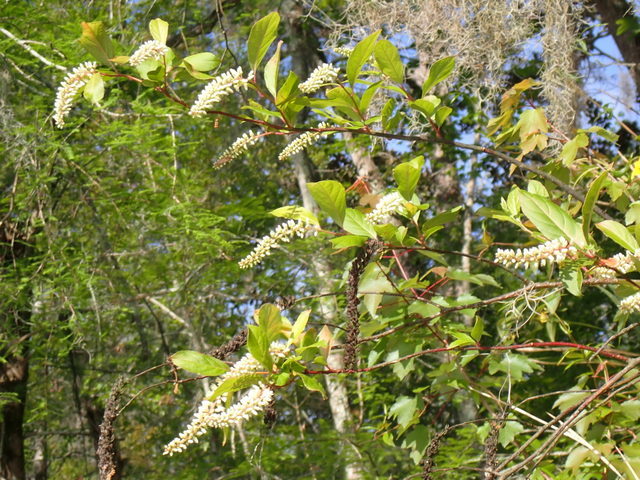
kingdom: Plantae
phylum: Tracheophyta
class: Magnoliopsida
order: Saxifragales
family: Iteaceae
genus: Itea
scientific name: Itea virginica
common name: Sweetspire
